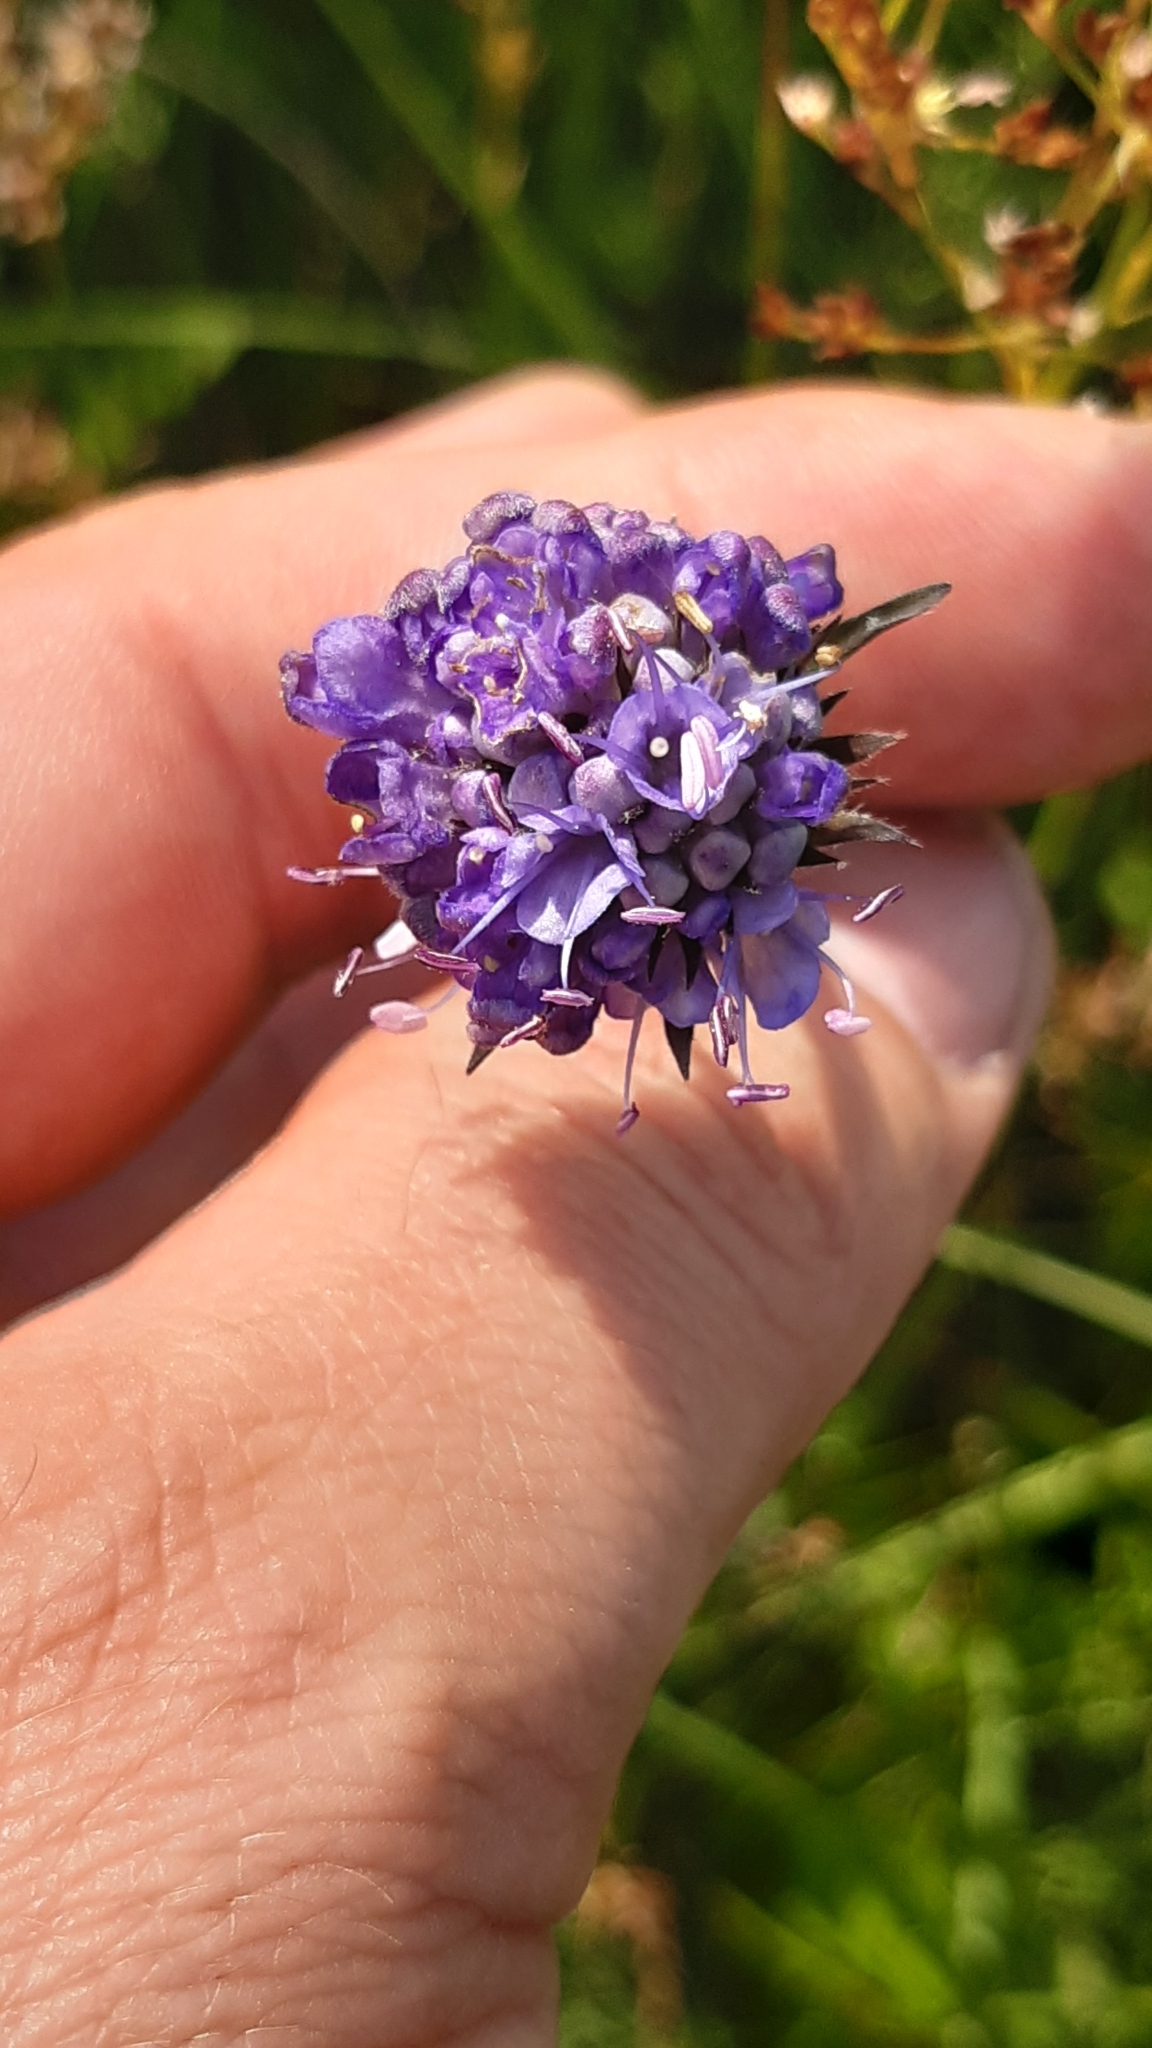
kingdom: Plantae
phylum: Tracheophyta
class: Magnoliopsida
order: Dipsacales
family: Caprifoliaceae
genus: Succisa
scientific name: Succisa pratensis
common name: Devil's-bit
